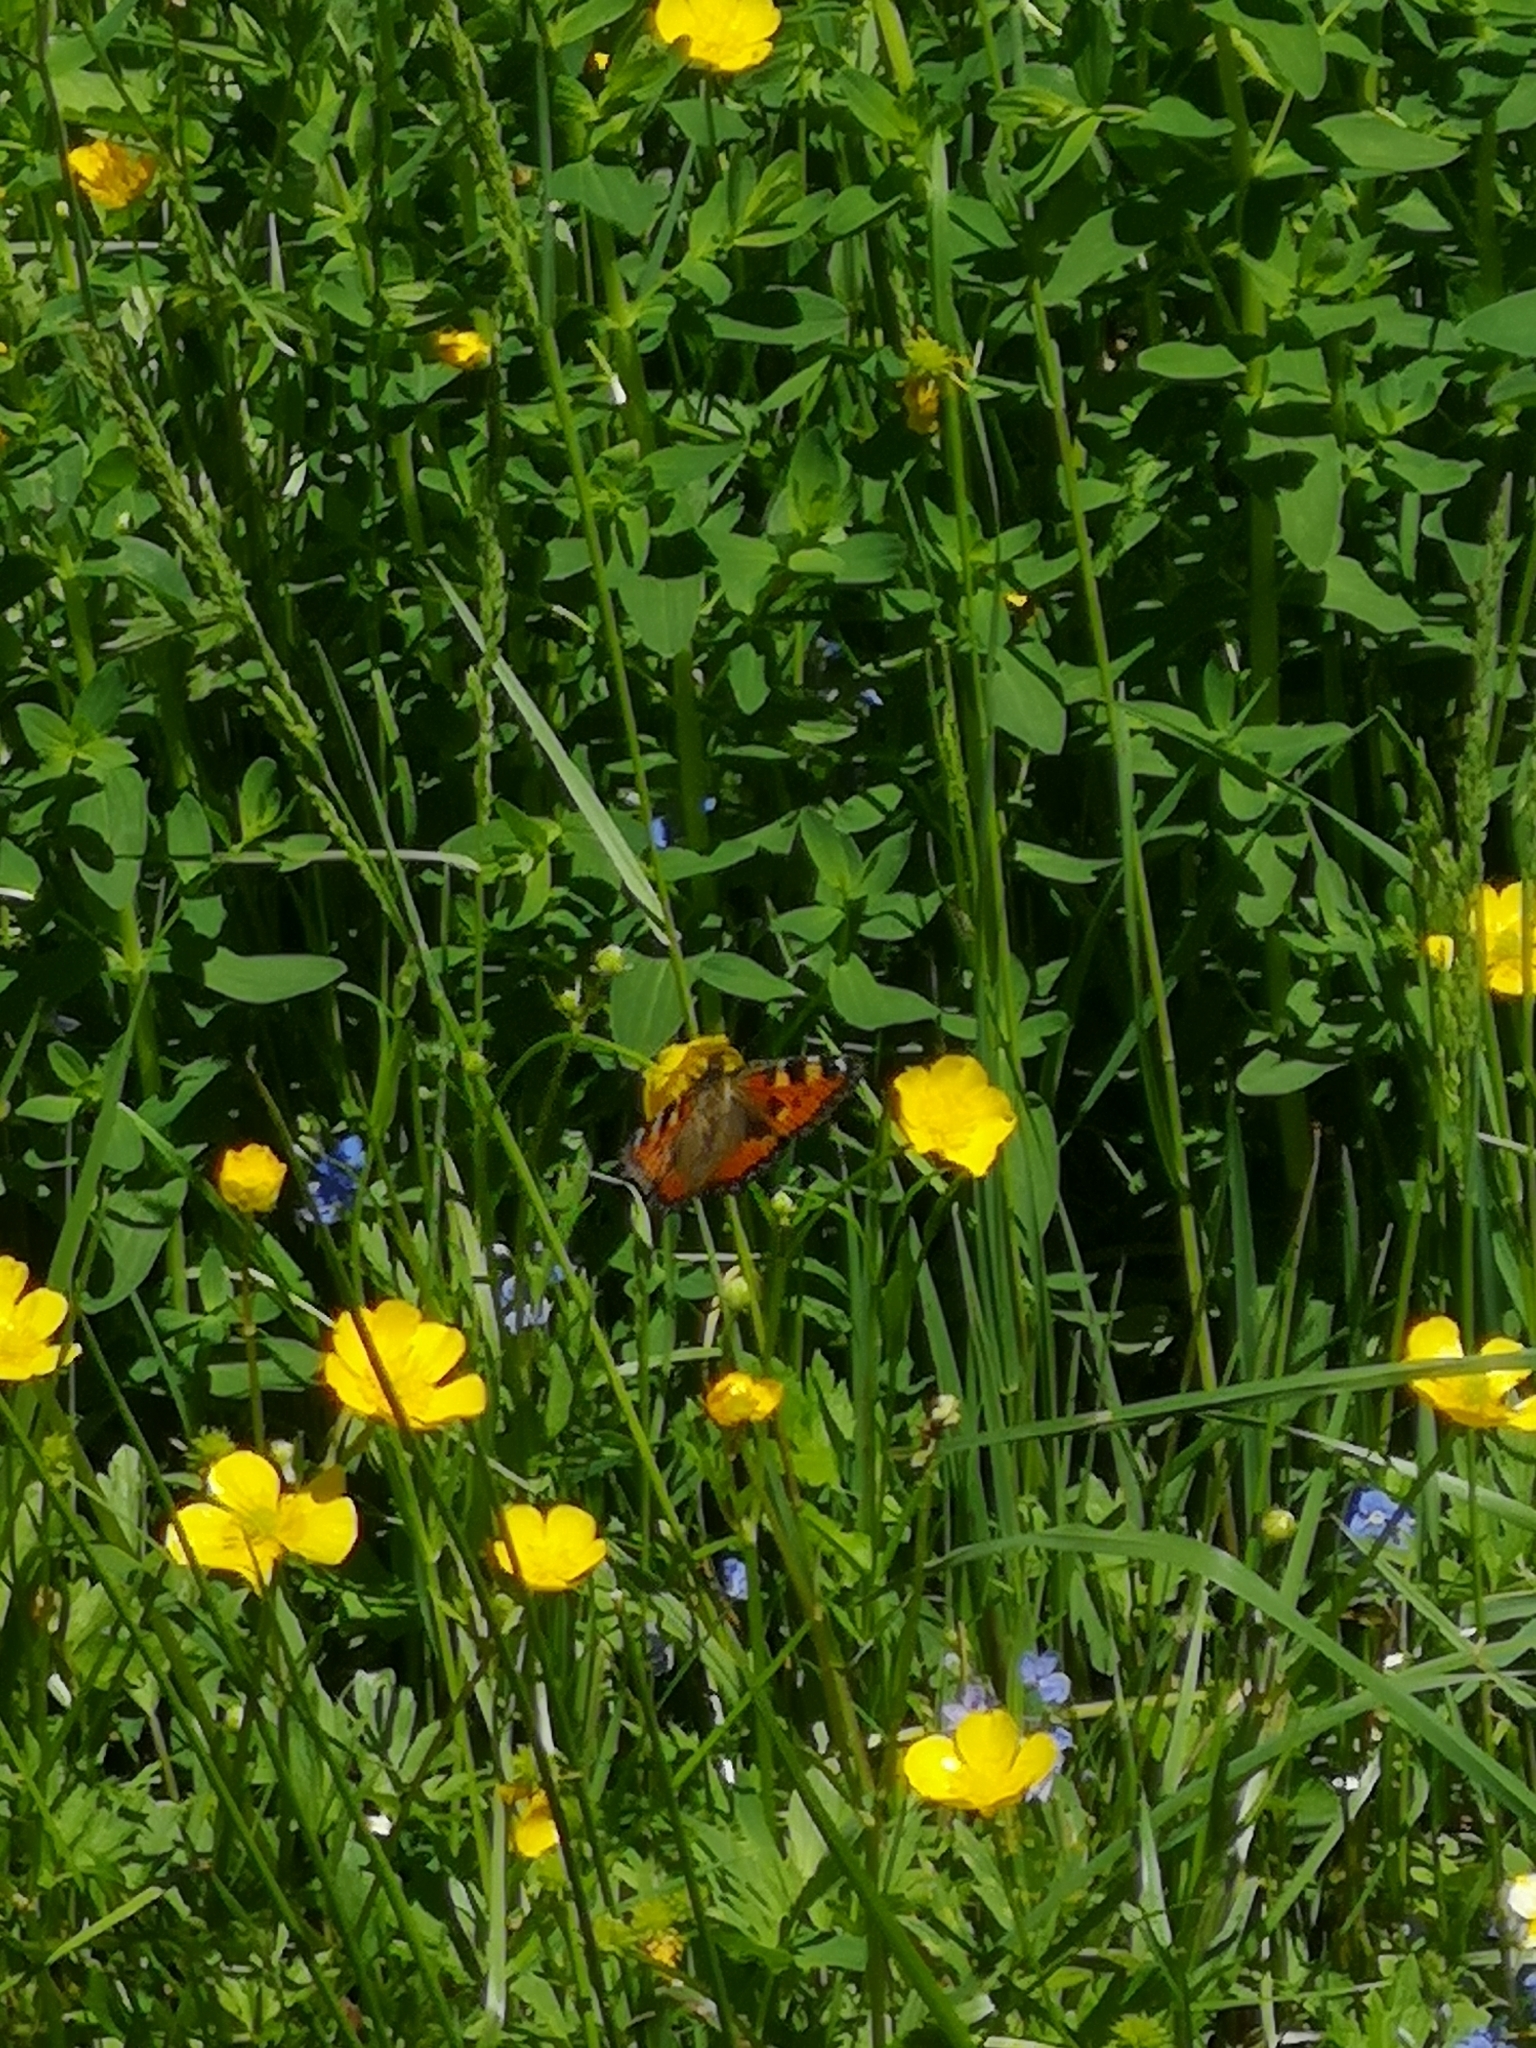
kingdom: Animalia
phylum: Arthropoda
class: Insecta
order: Lepidoptera
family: Nymphalidae
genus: Aglais
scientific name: Aglais urticae
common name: Small tortoiseshell
